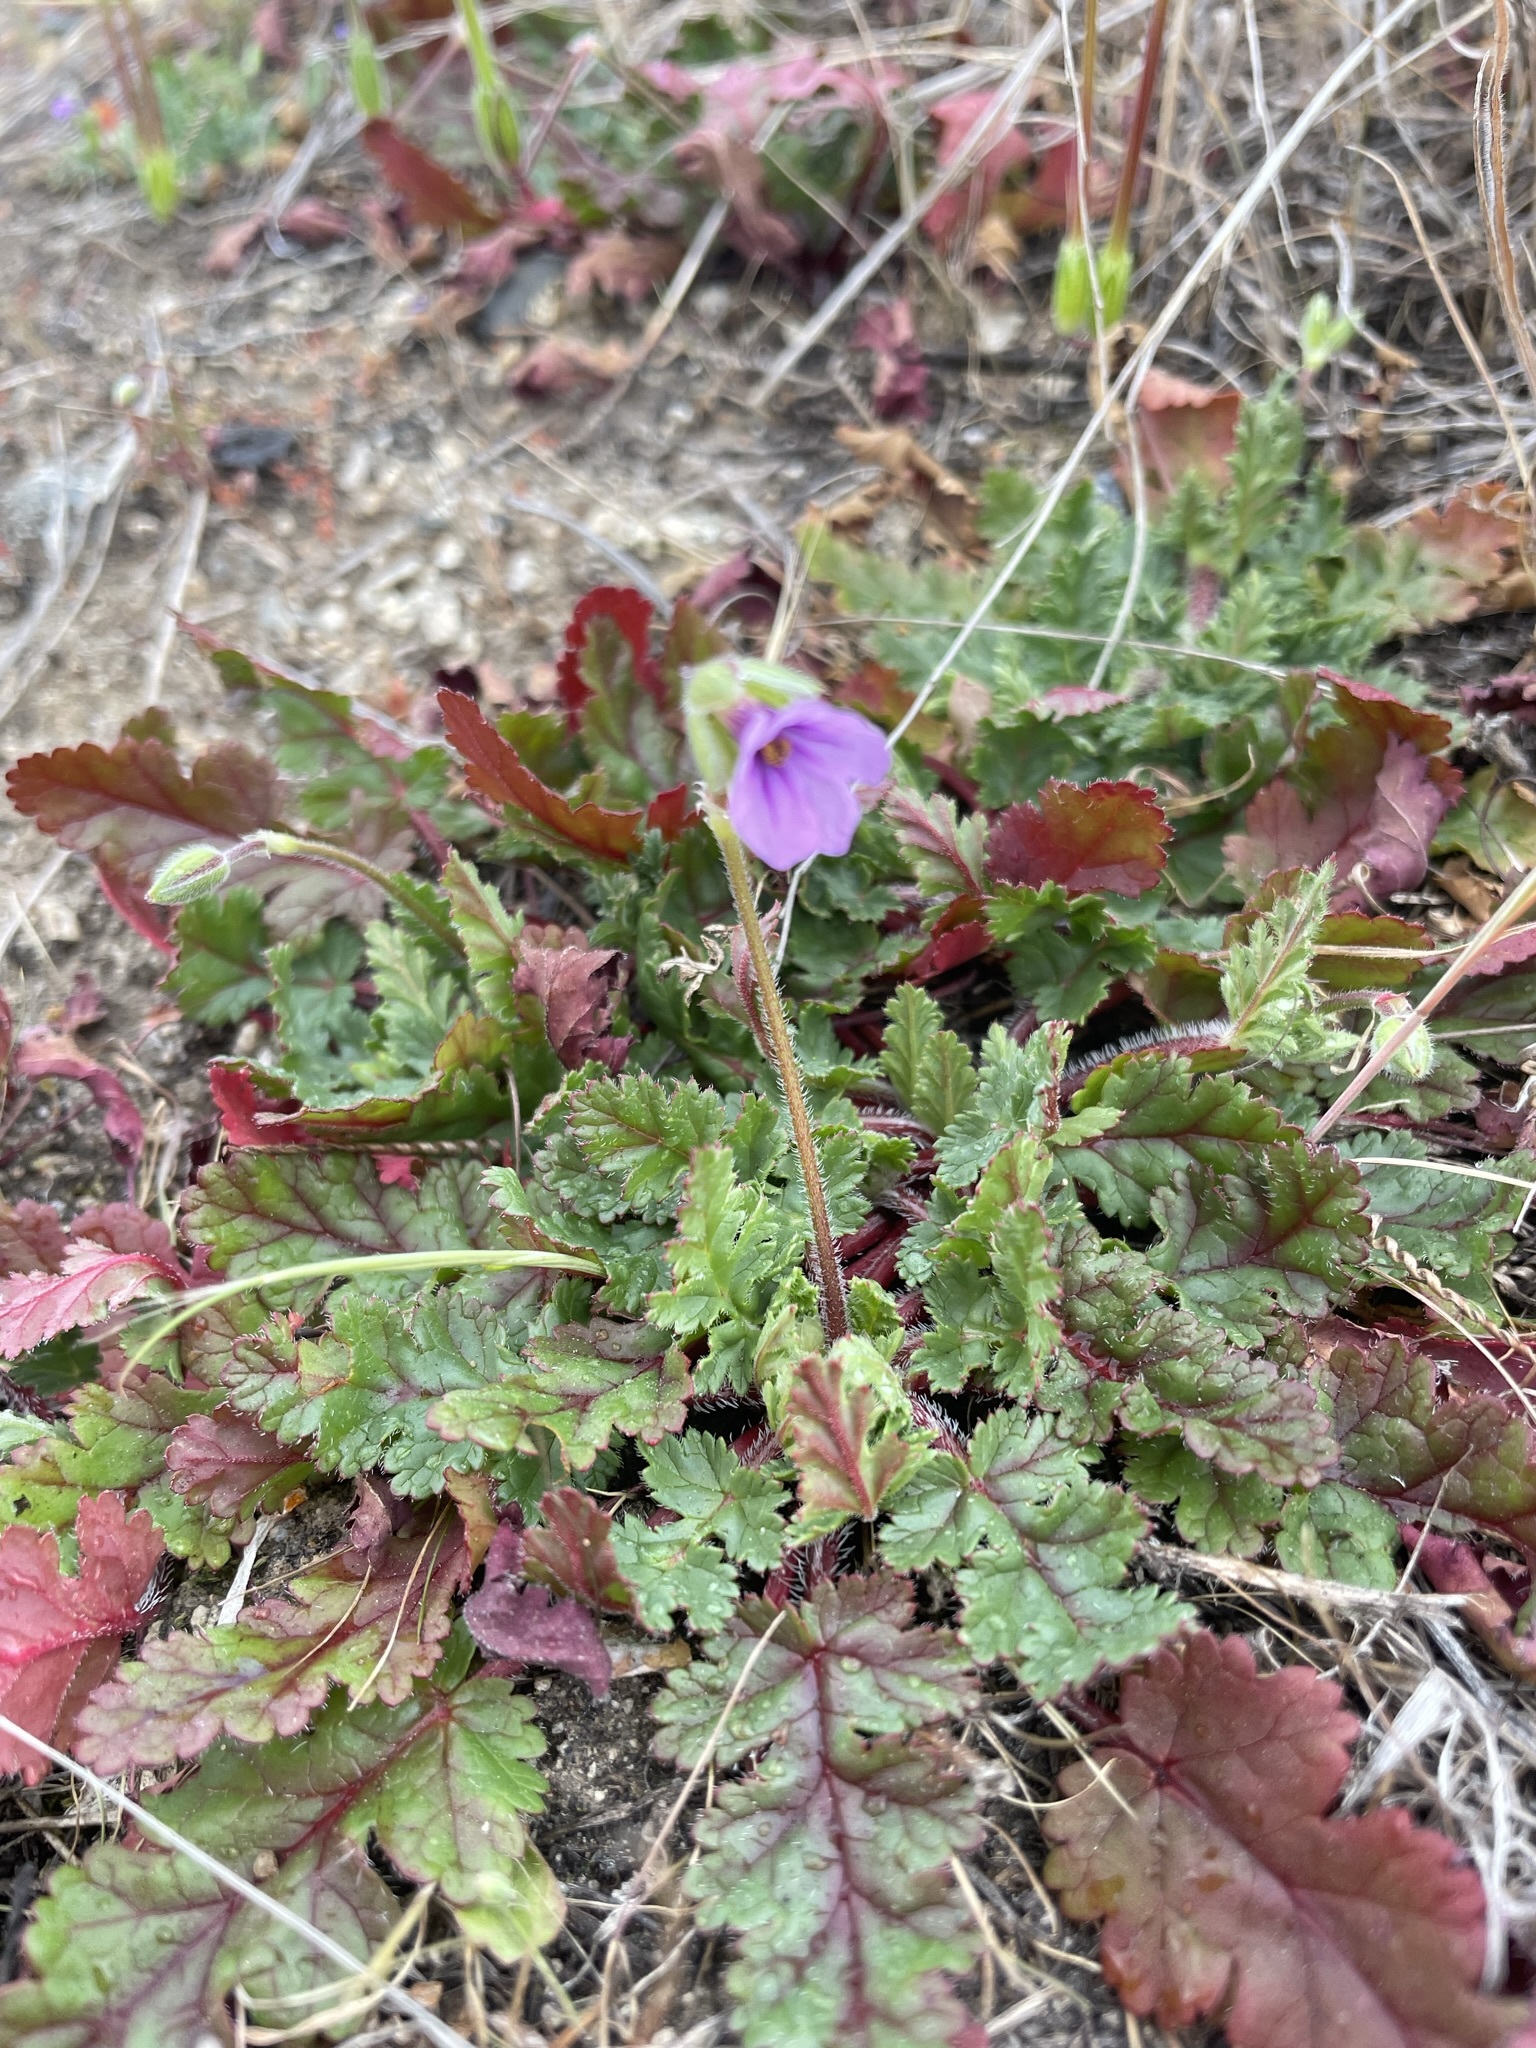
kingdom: Plantae
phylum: Tracheophyta
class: Magnoliopsida
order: Geraniales
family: Geraniaceae
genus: Erodium
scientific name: Erodium botrys
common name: Mediterranean stork's-bill
